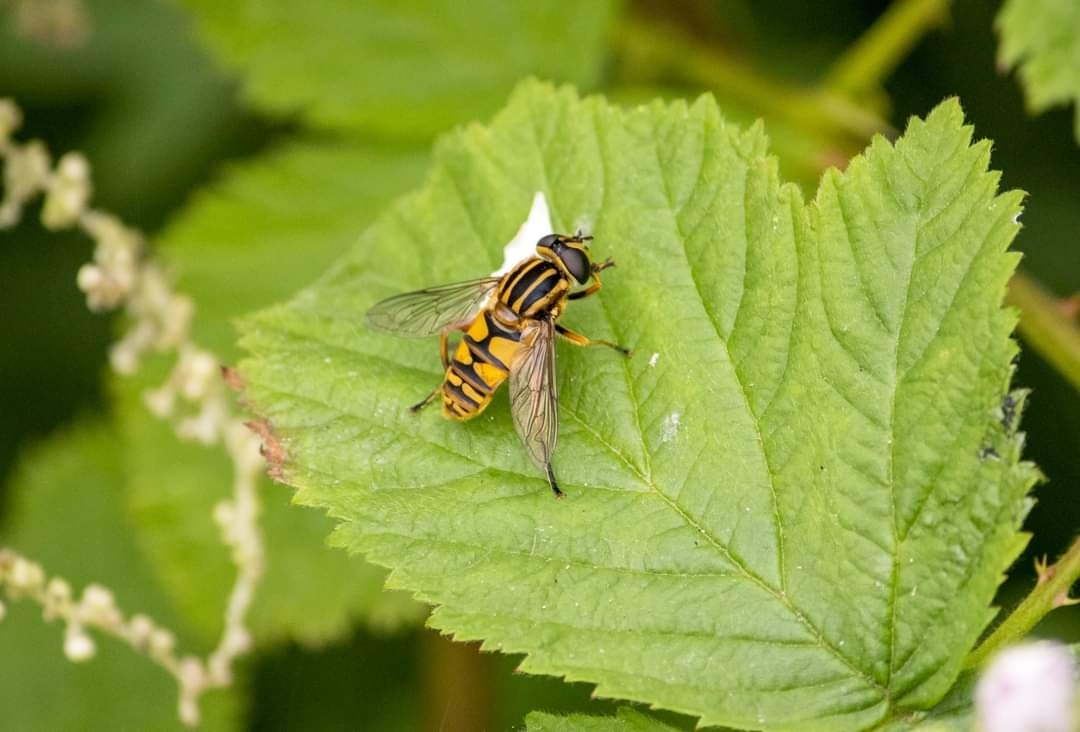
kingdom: Animalia
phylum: Arthropoda
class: Insecta
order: Diptera
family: Syrphidae
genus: Helophilus
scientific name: Helophilus pendulus
